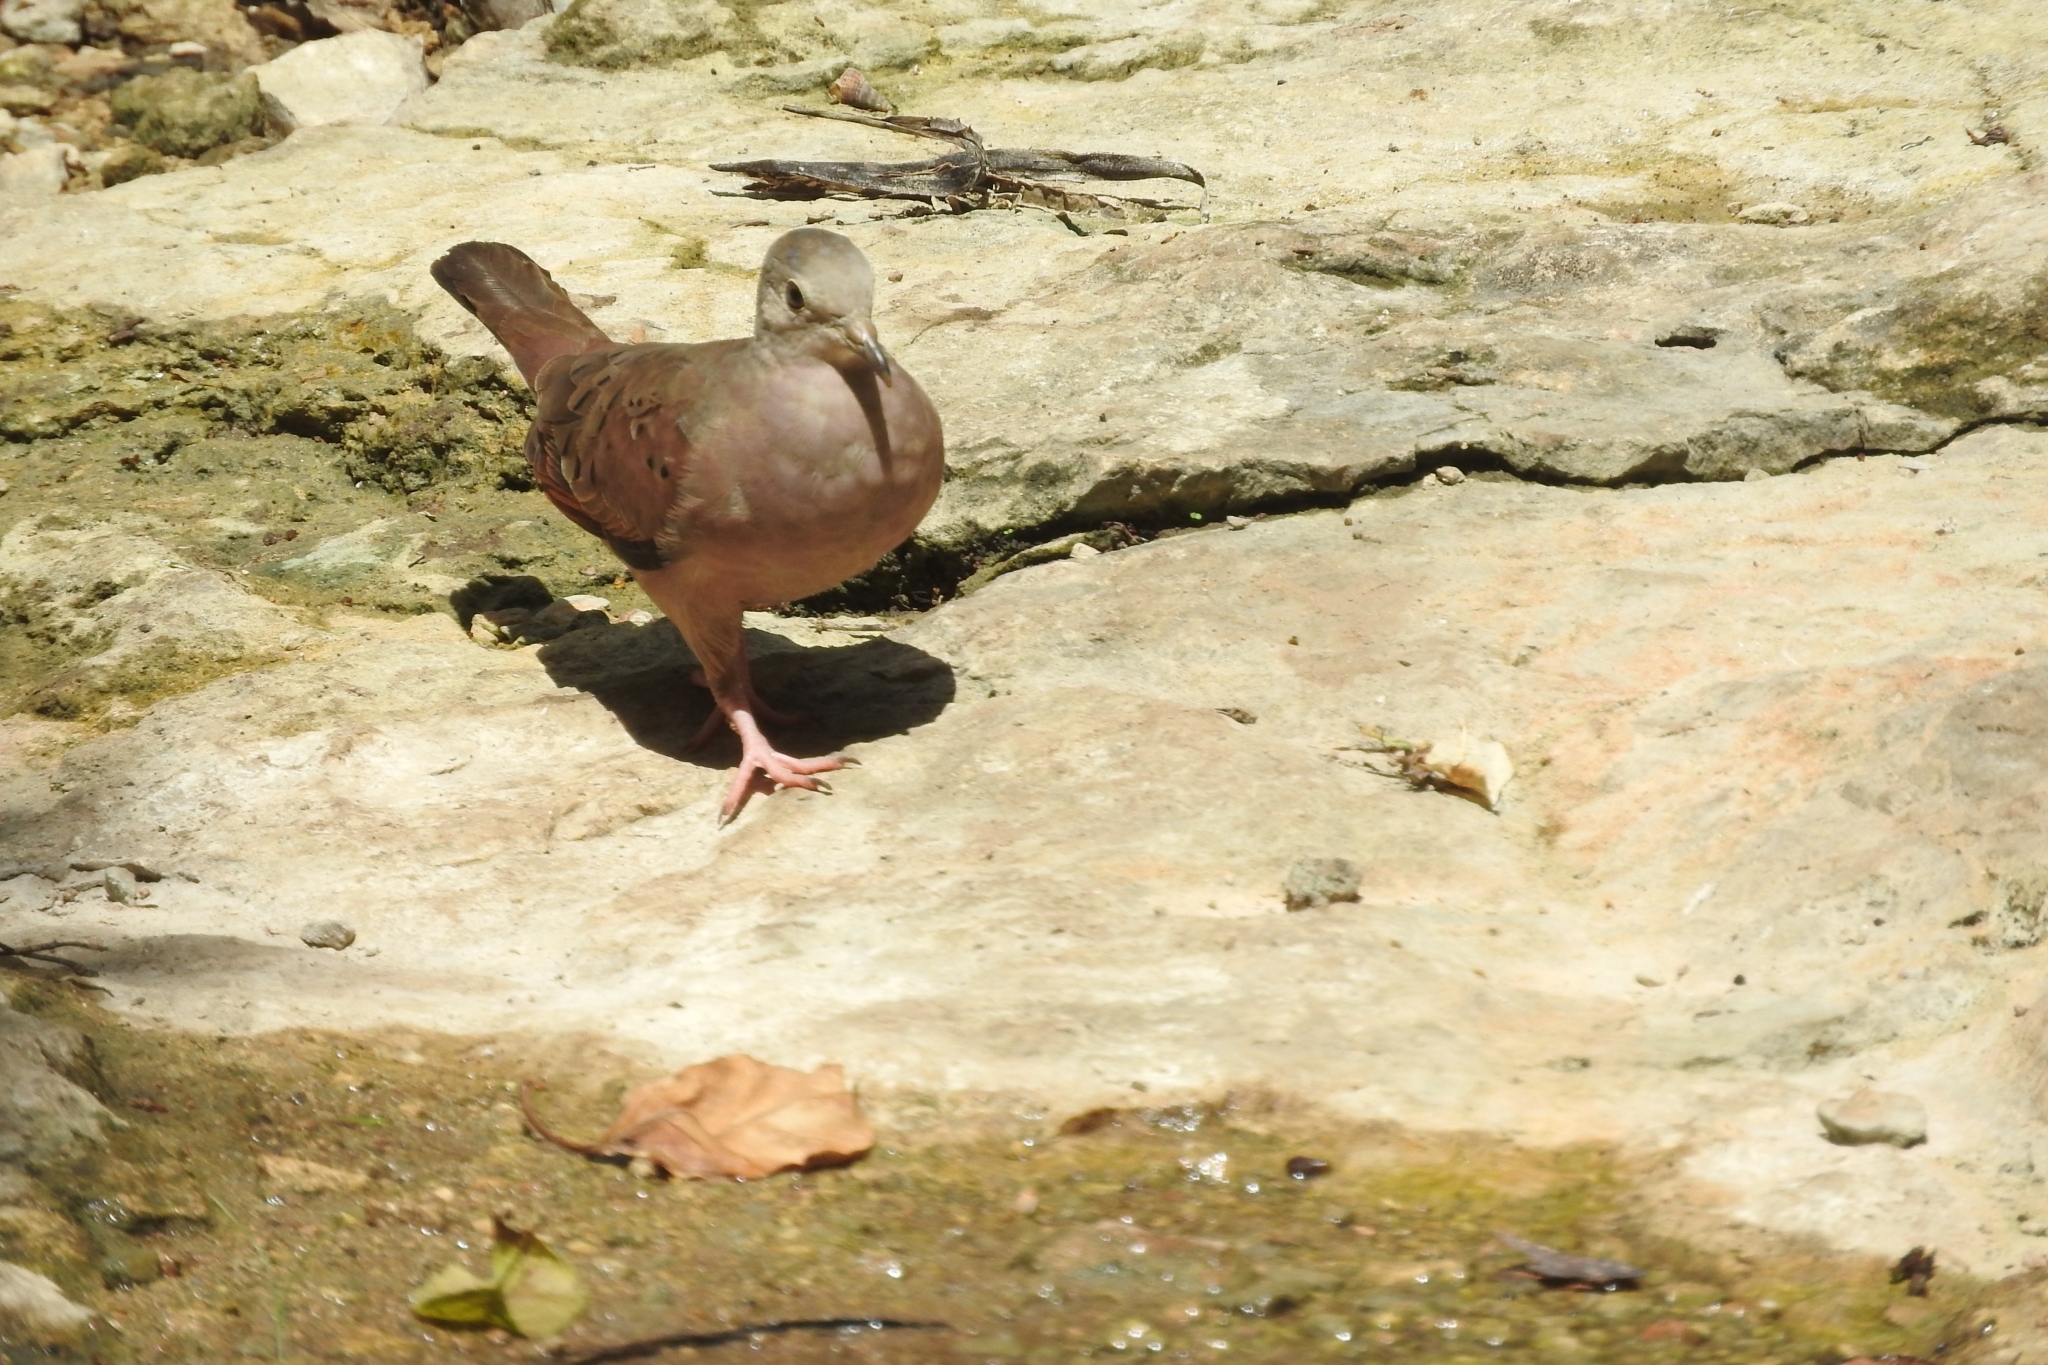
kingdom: Animalia
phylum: Chordata
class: Aves
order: Columbiformes
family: Columbidae
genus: Columbina
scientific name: Columbina talpacoti
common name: Ruddy ground dove
